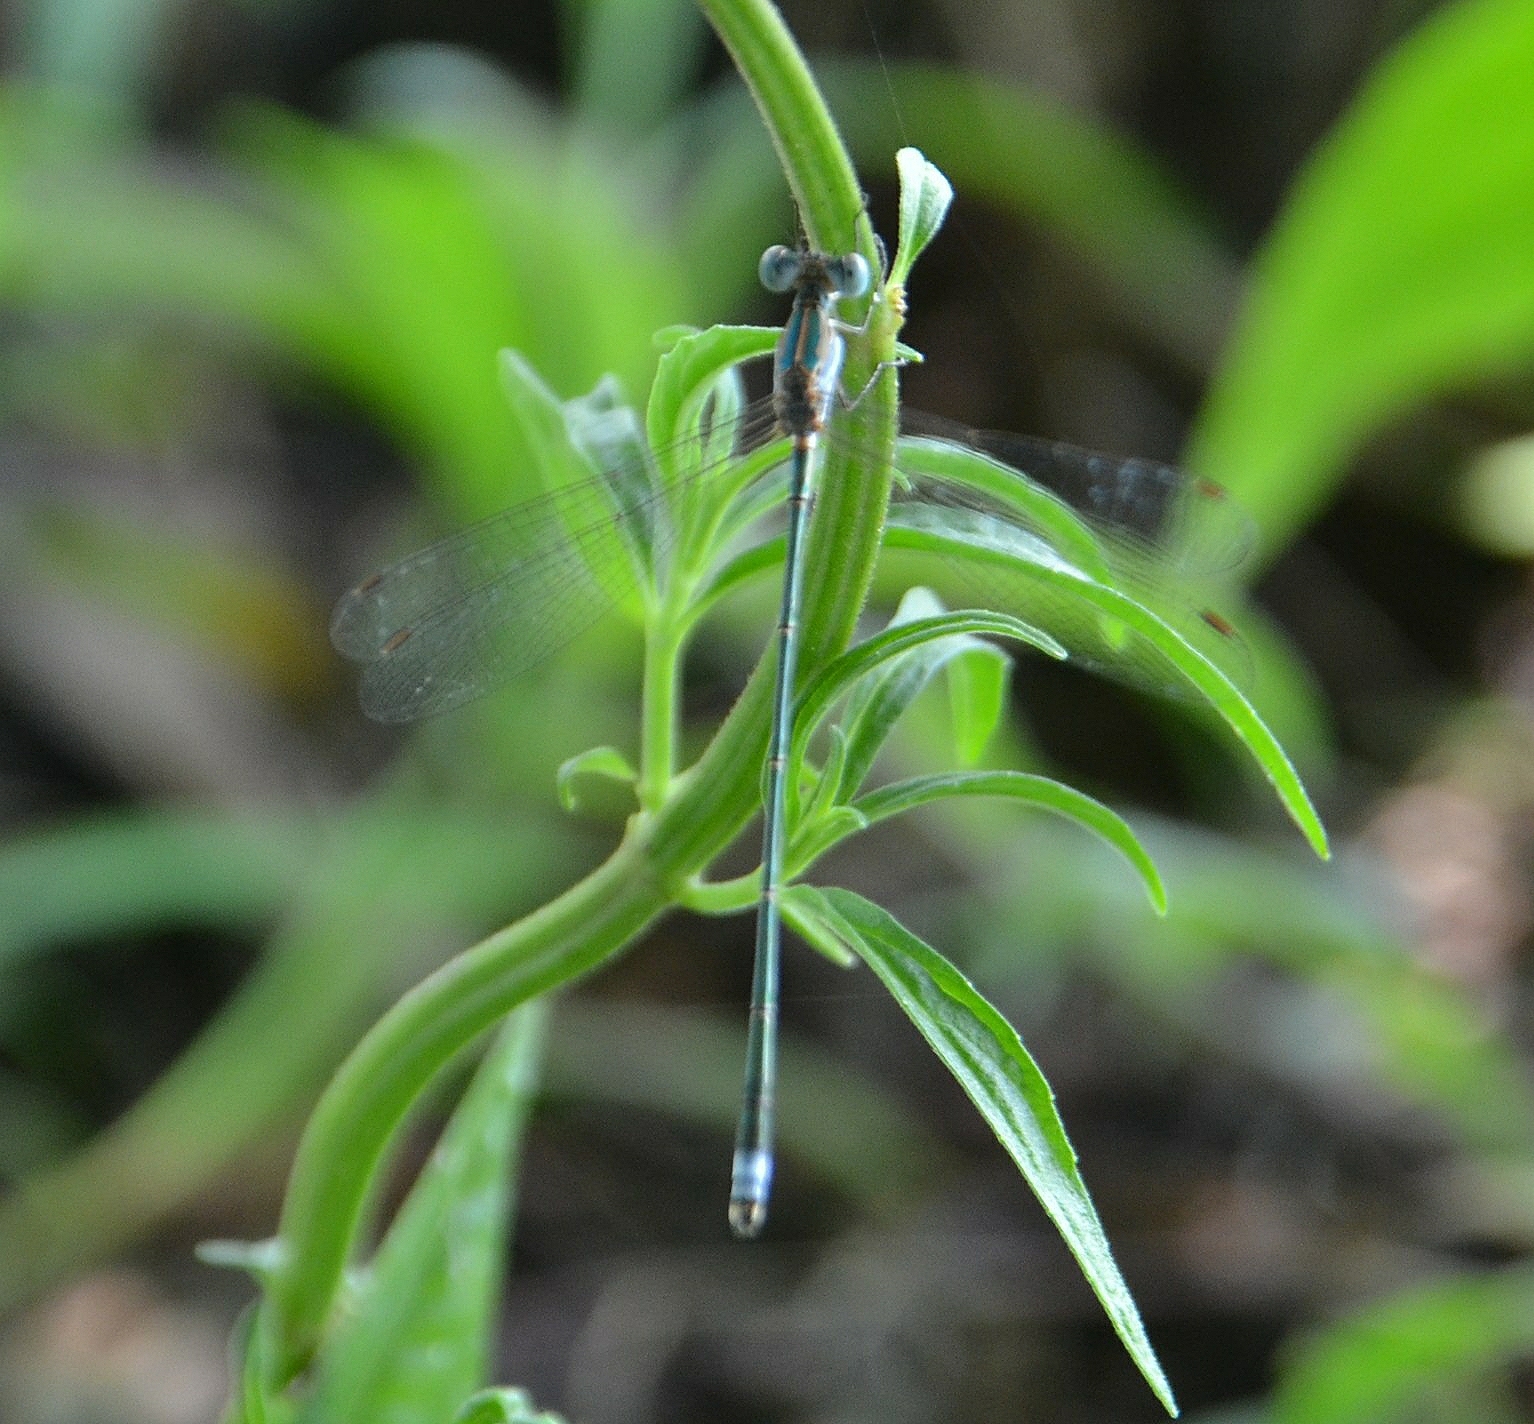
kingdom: Animalia
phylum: Arthropoda
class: Insecta
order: Odonata
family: Lestidae
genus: Lestes
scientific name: Lestes elatus
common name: Emerald spreadwing
